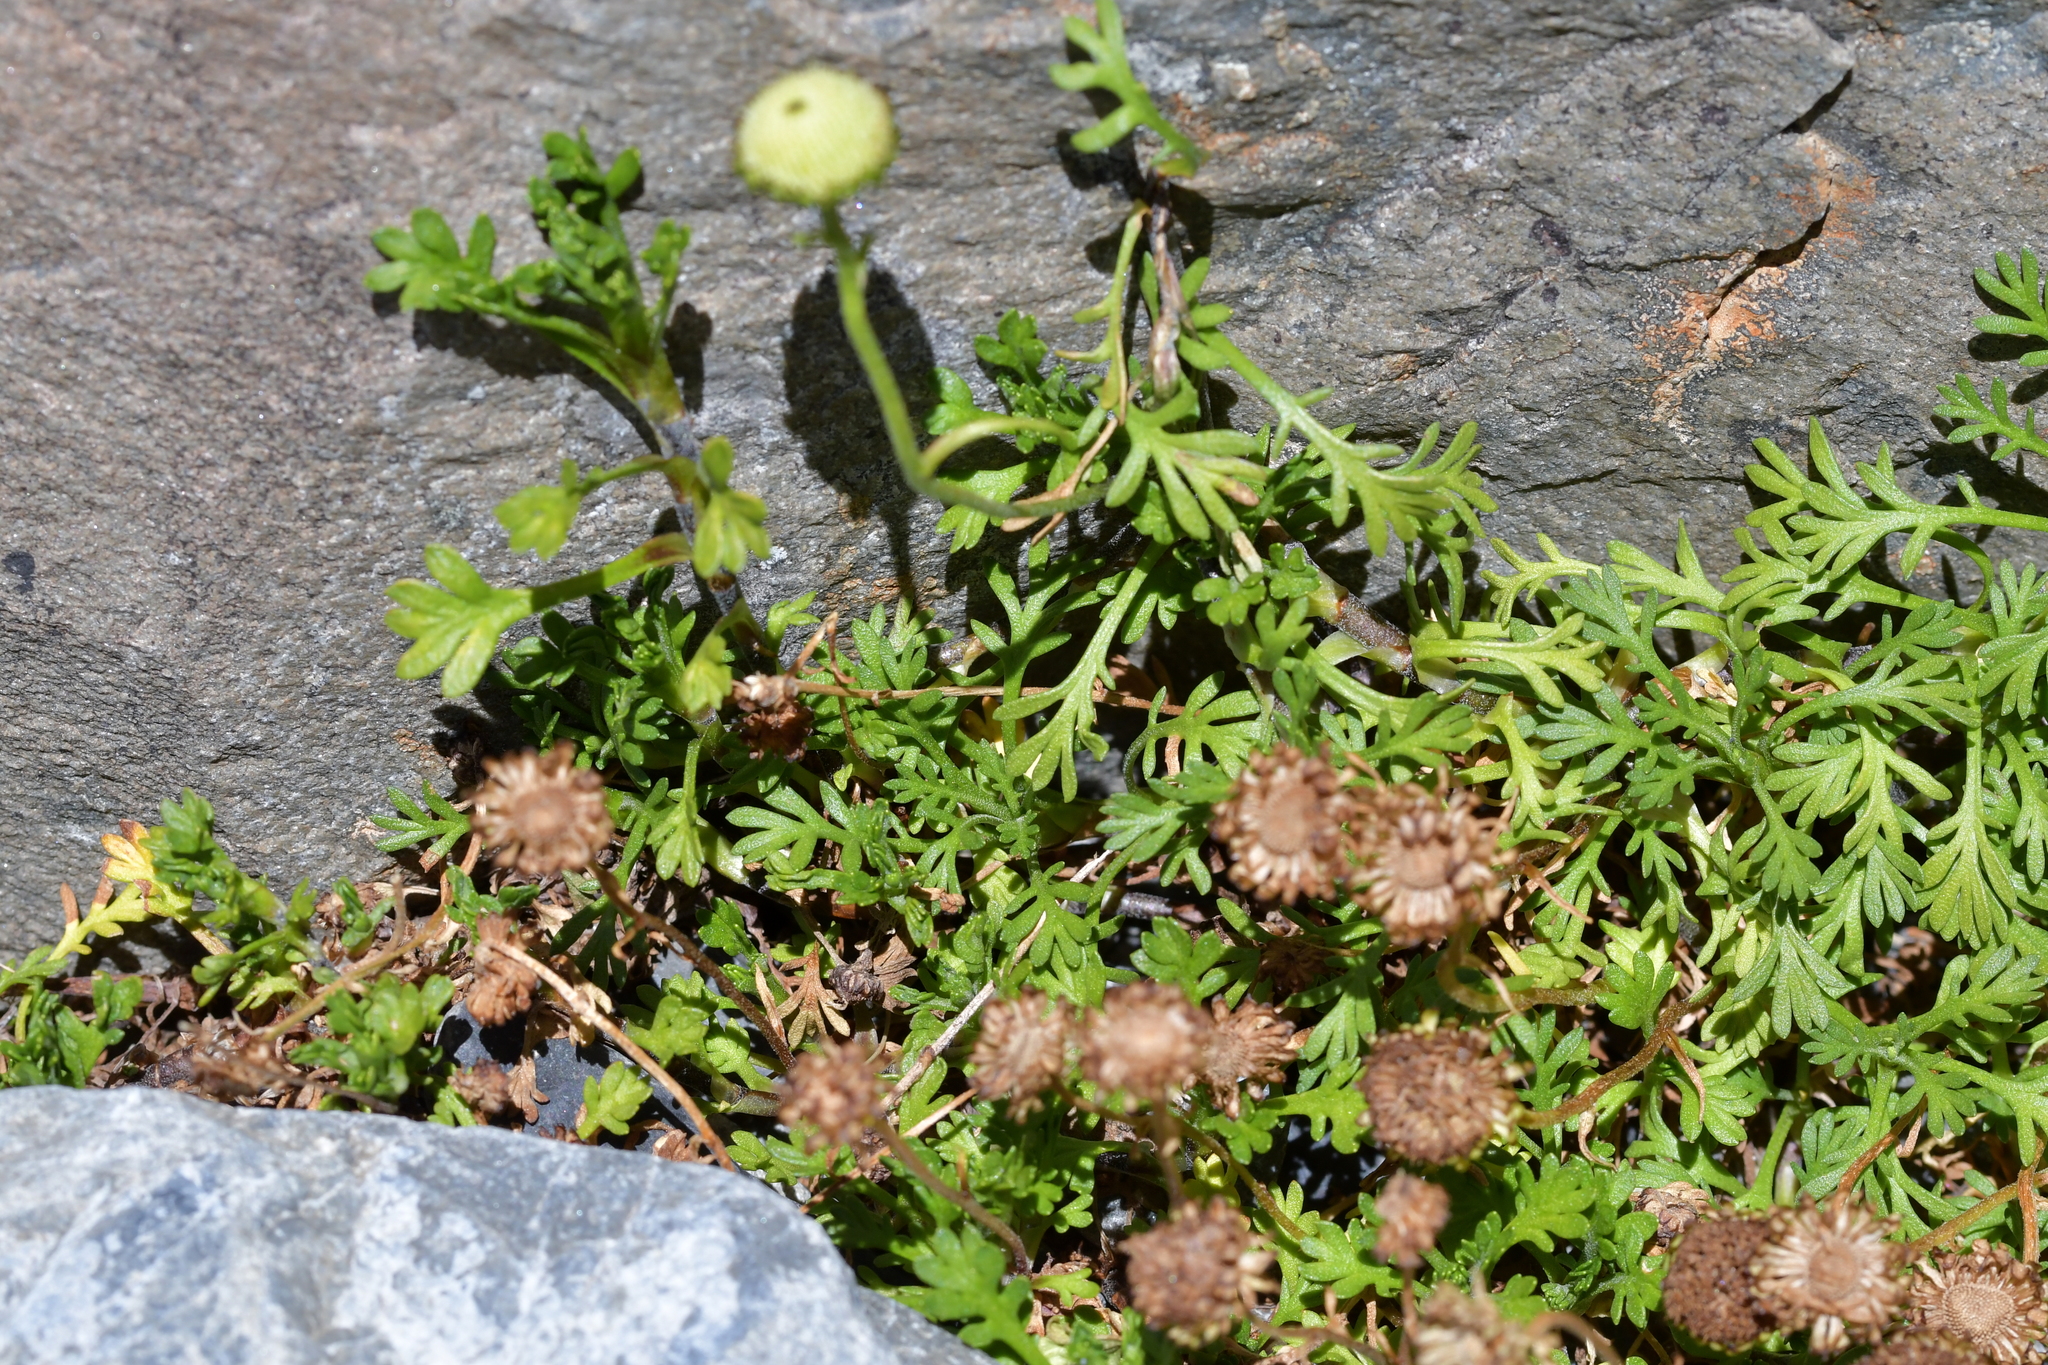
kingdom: Plantae
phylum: Tracheophyta
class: Magnoliopsida
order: Asterales
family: Asteraceae
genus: Leptinella
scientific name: Leptinella pyrethrifolia
